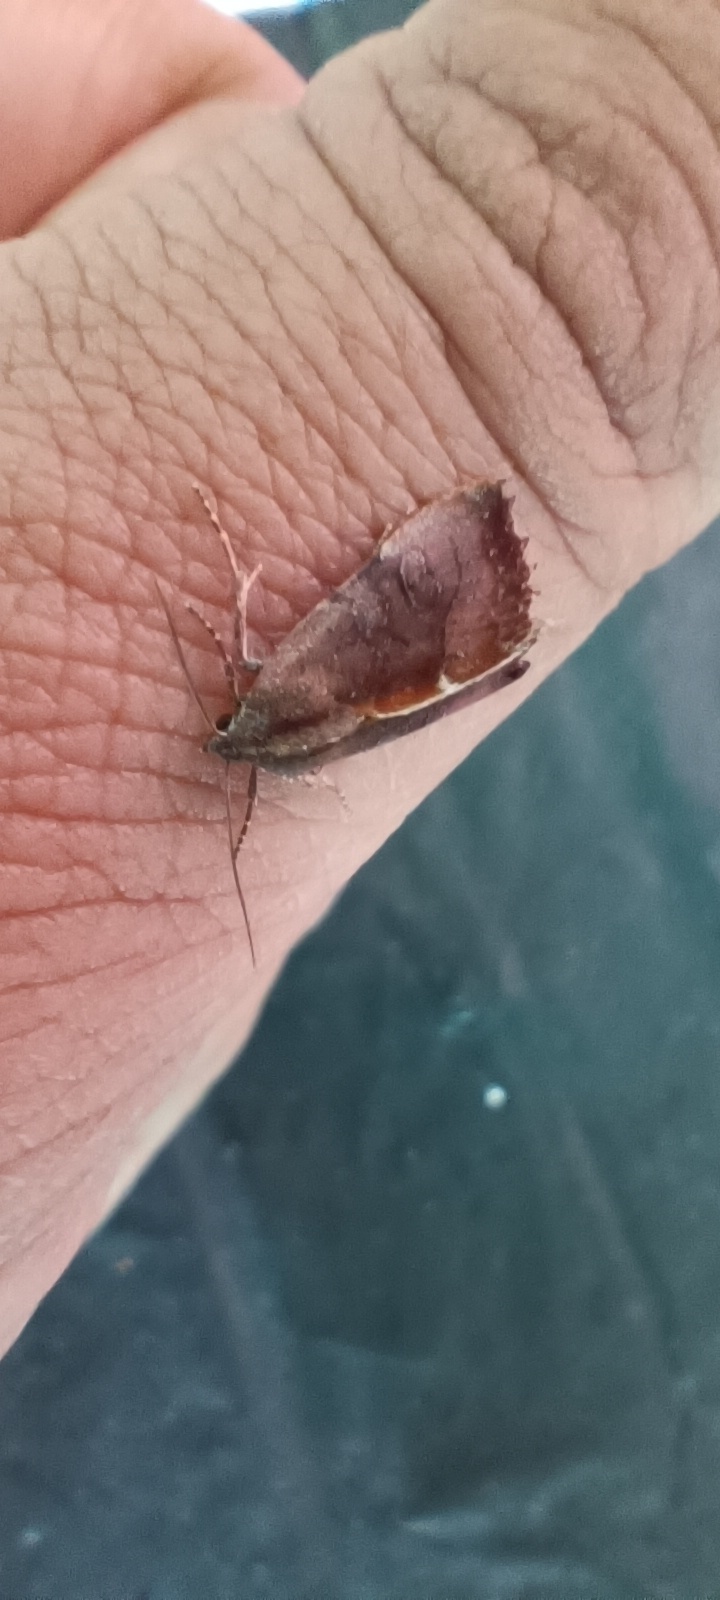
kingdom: Animalia
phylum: Arthropoda
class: Insecta
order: Lepidoptera
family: Noctuidae
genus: Galgula
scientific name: Galgula partita
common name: Wedgeling
